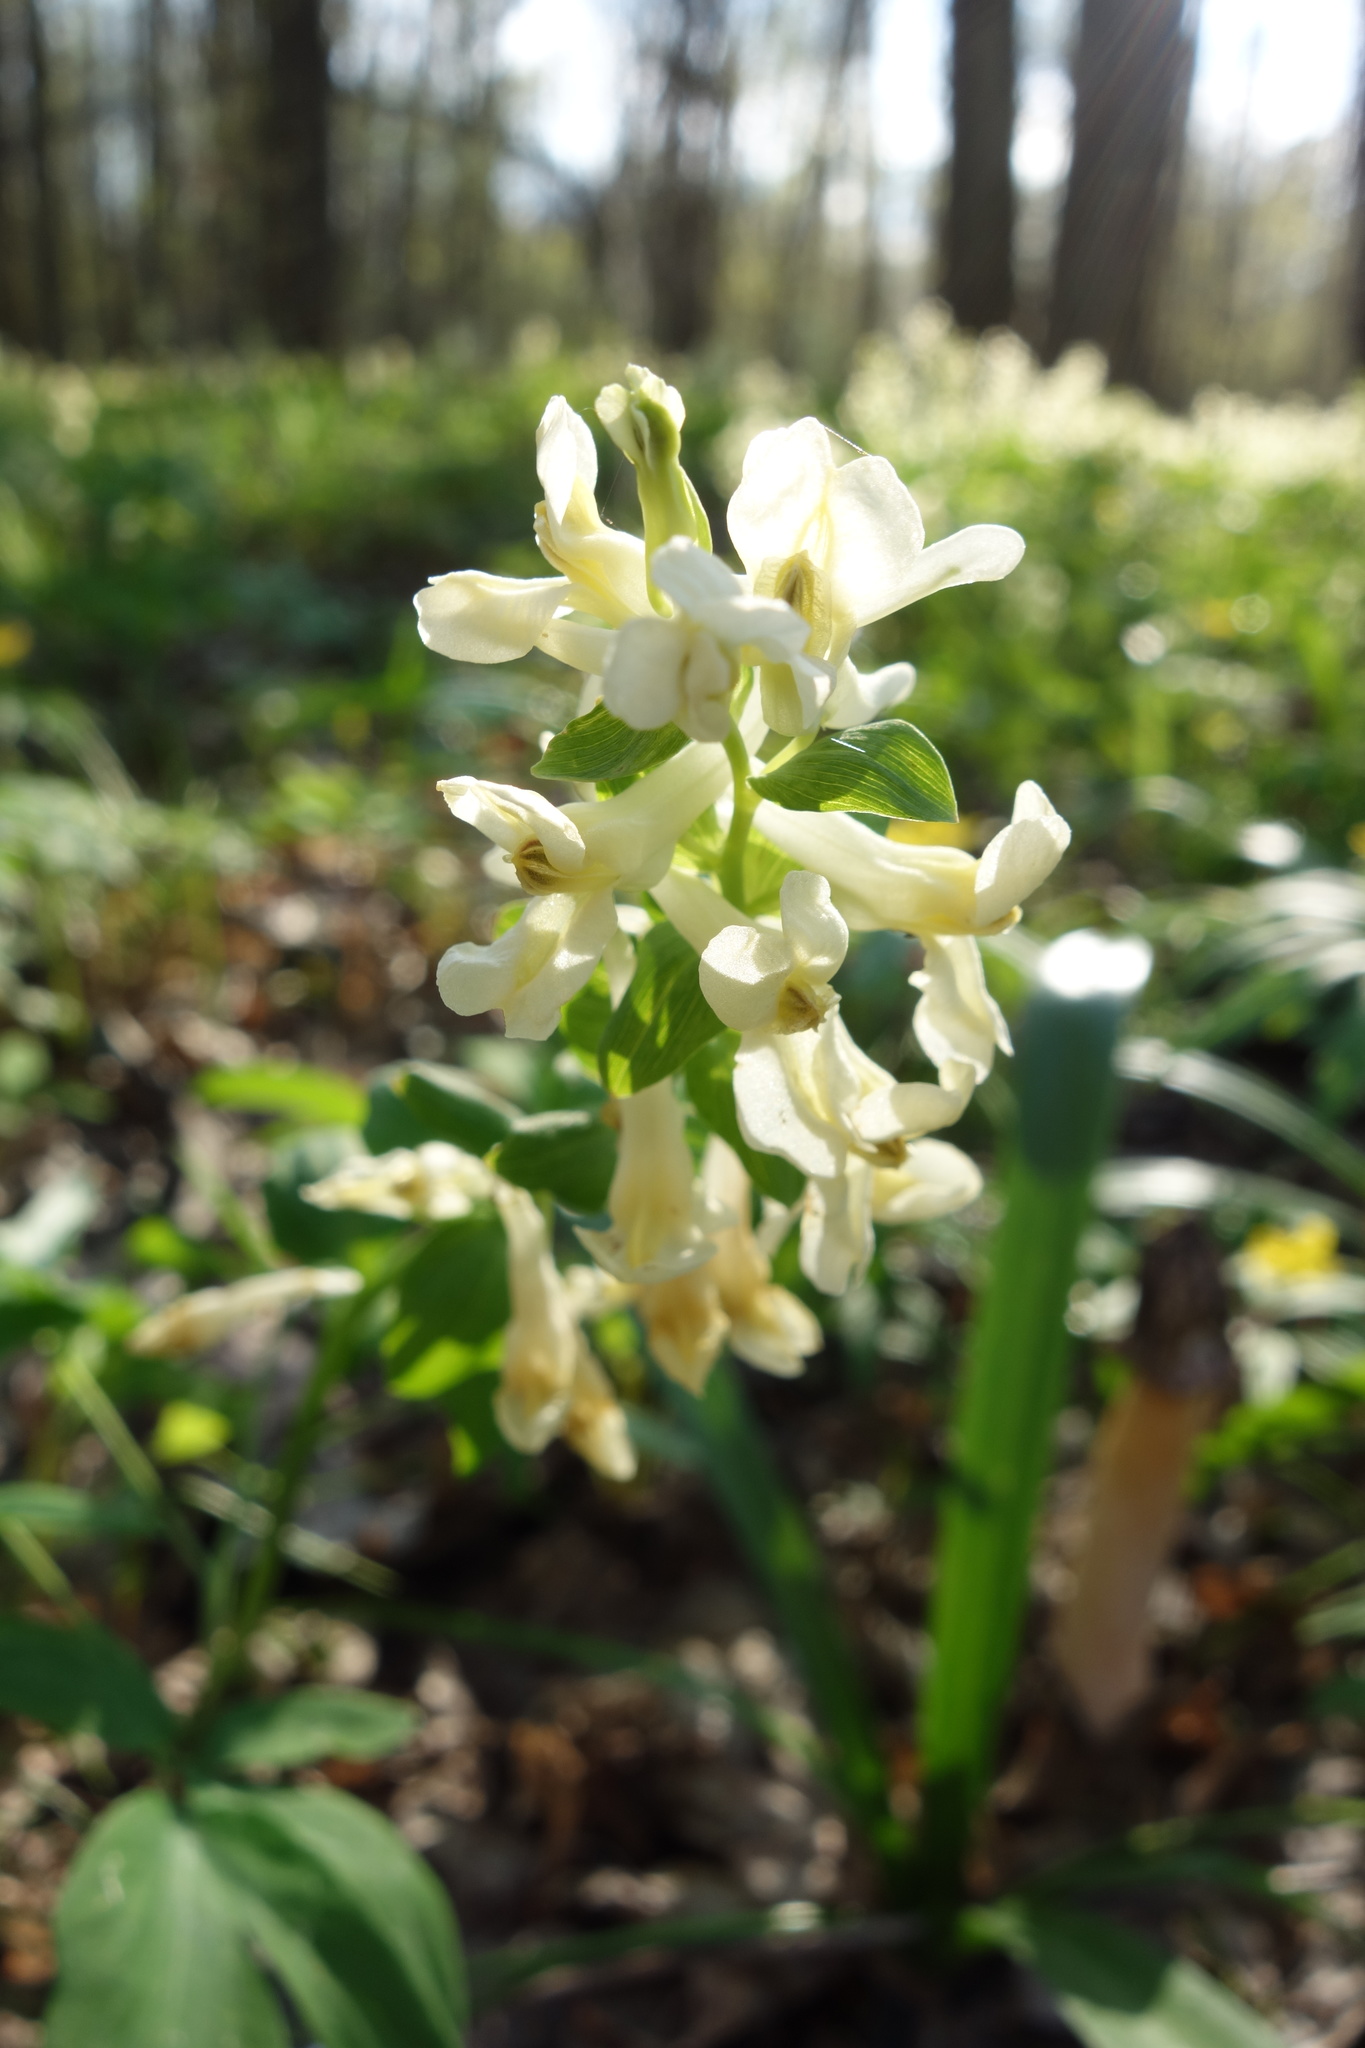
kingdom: Plantae
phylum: Tracheophyta
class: Magnoliopsida
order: Ranunculales
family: Papaveraceae
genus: Corydalis
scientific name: Corydalis cava
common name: Hollowroot
